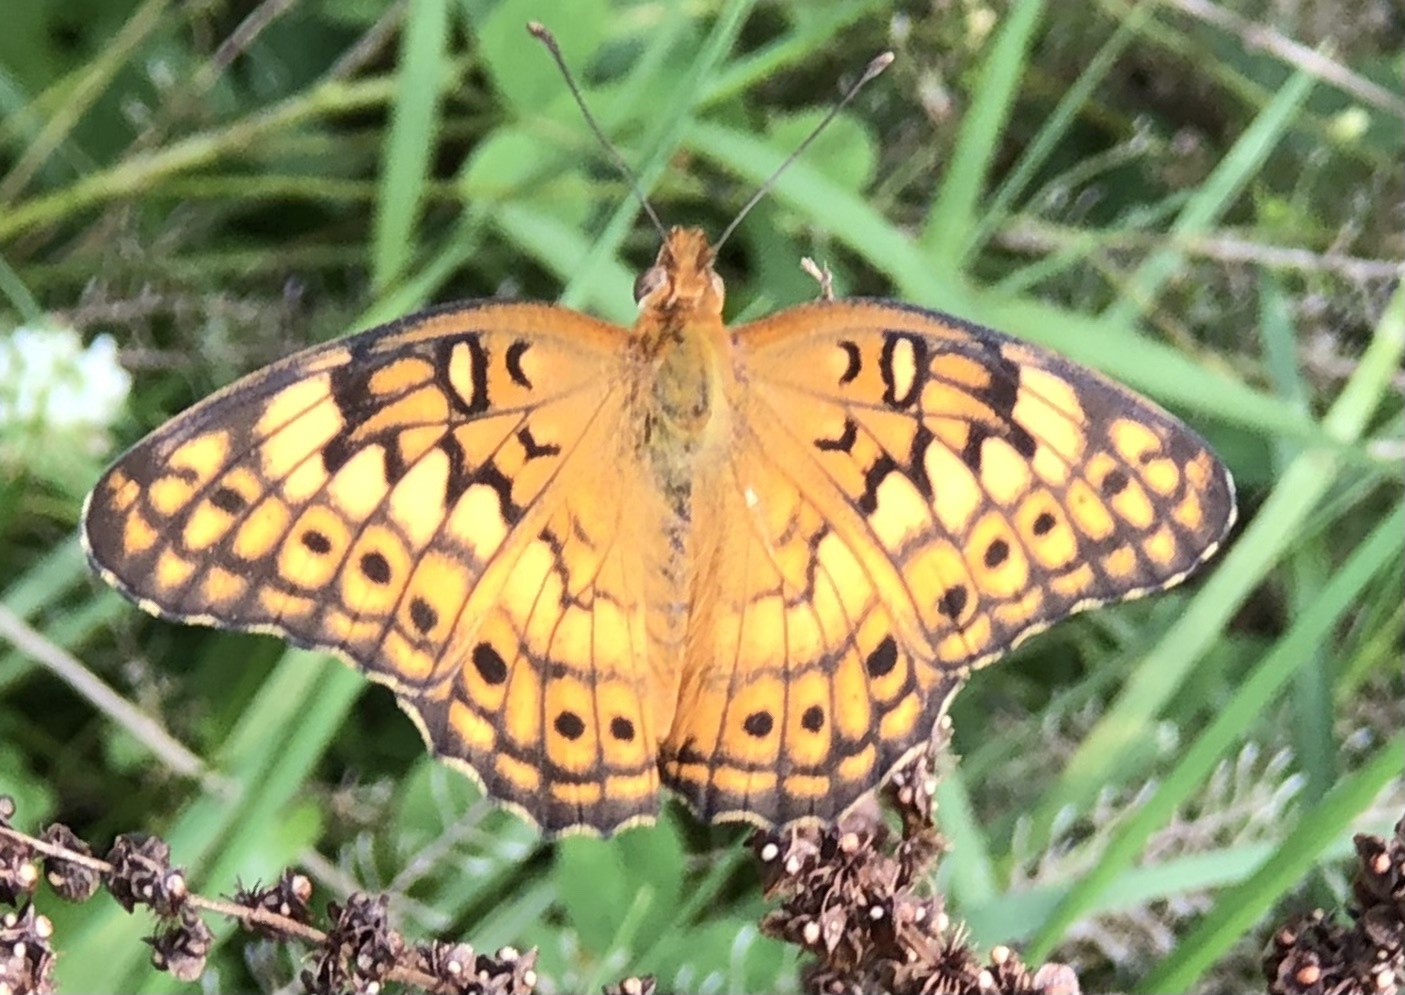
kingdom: Animalia
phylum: Arthropoda
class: Insecta
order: Lepidoptera
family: Nymphalidae
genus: Euptoieta
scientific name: Euptoieta claudia
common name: Variegated fritillary
